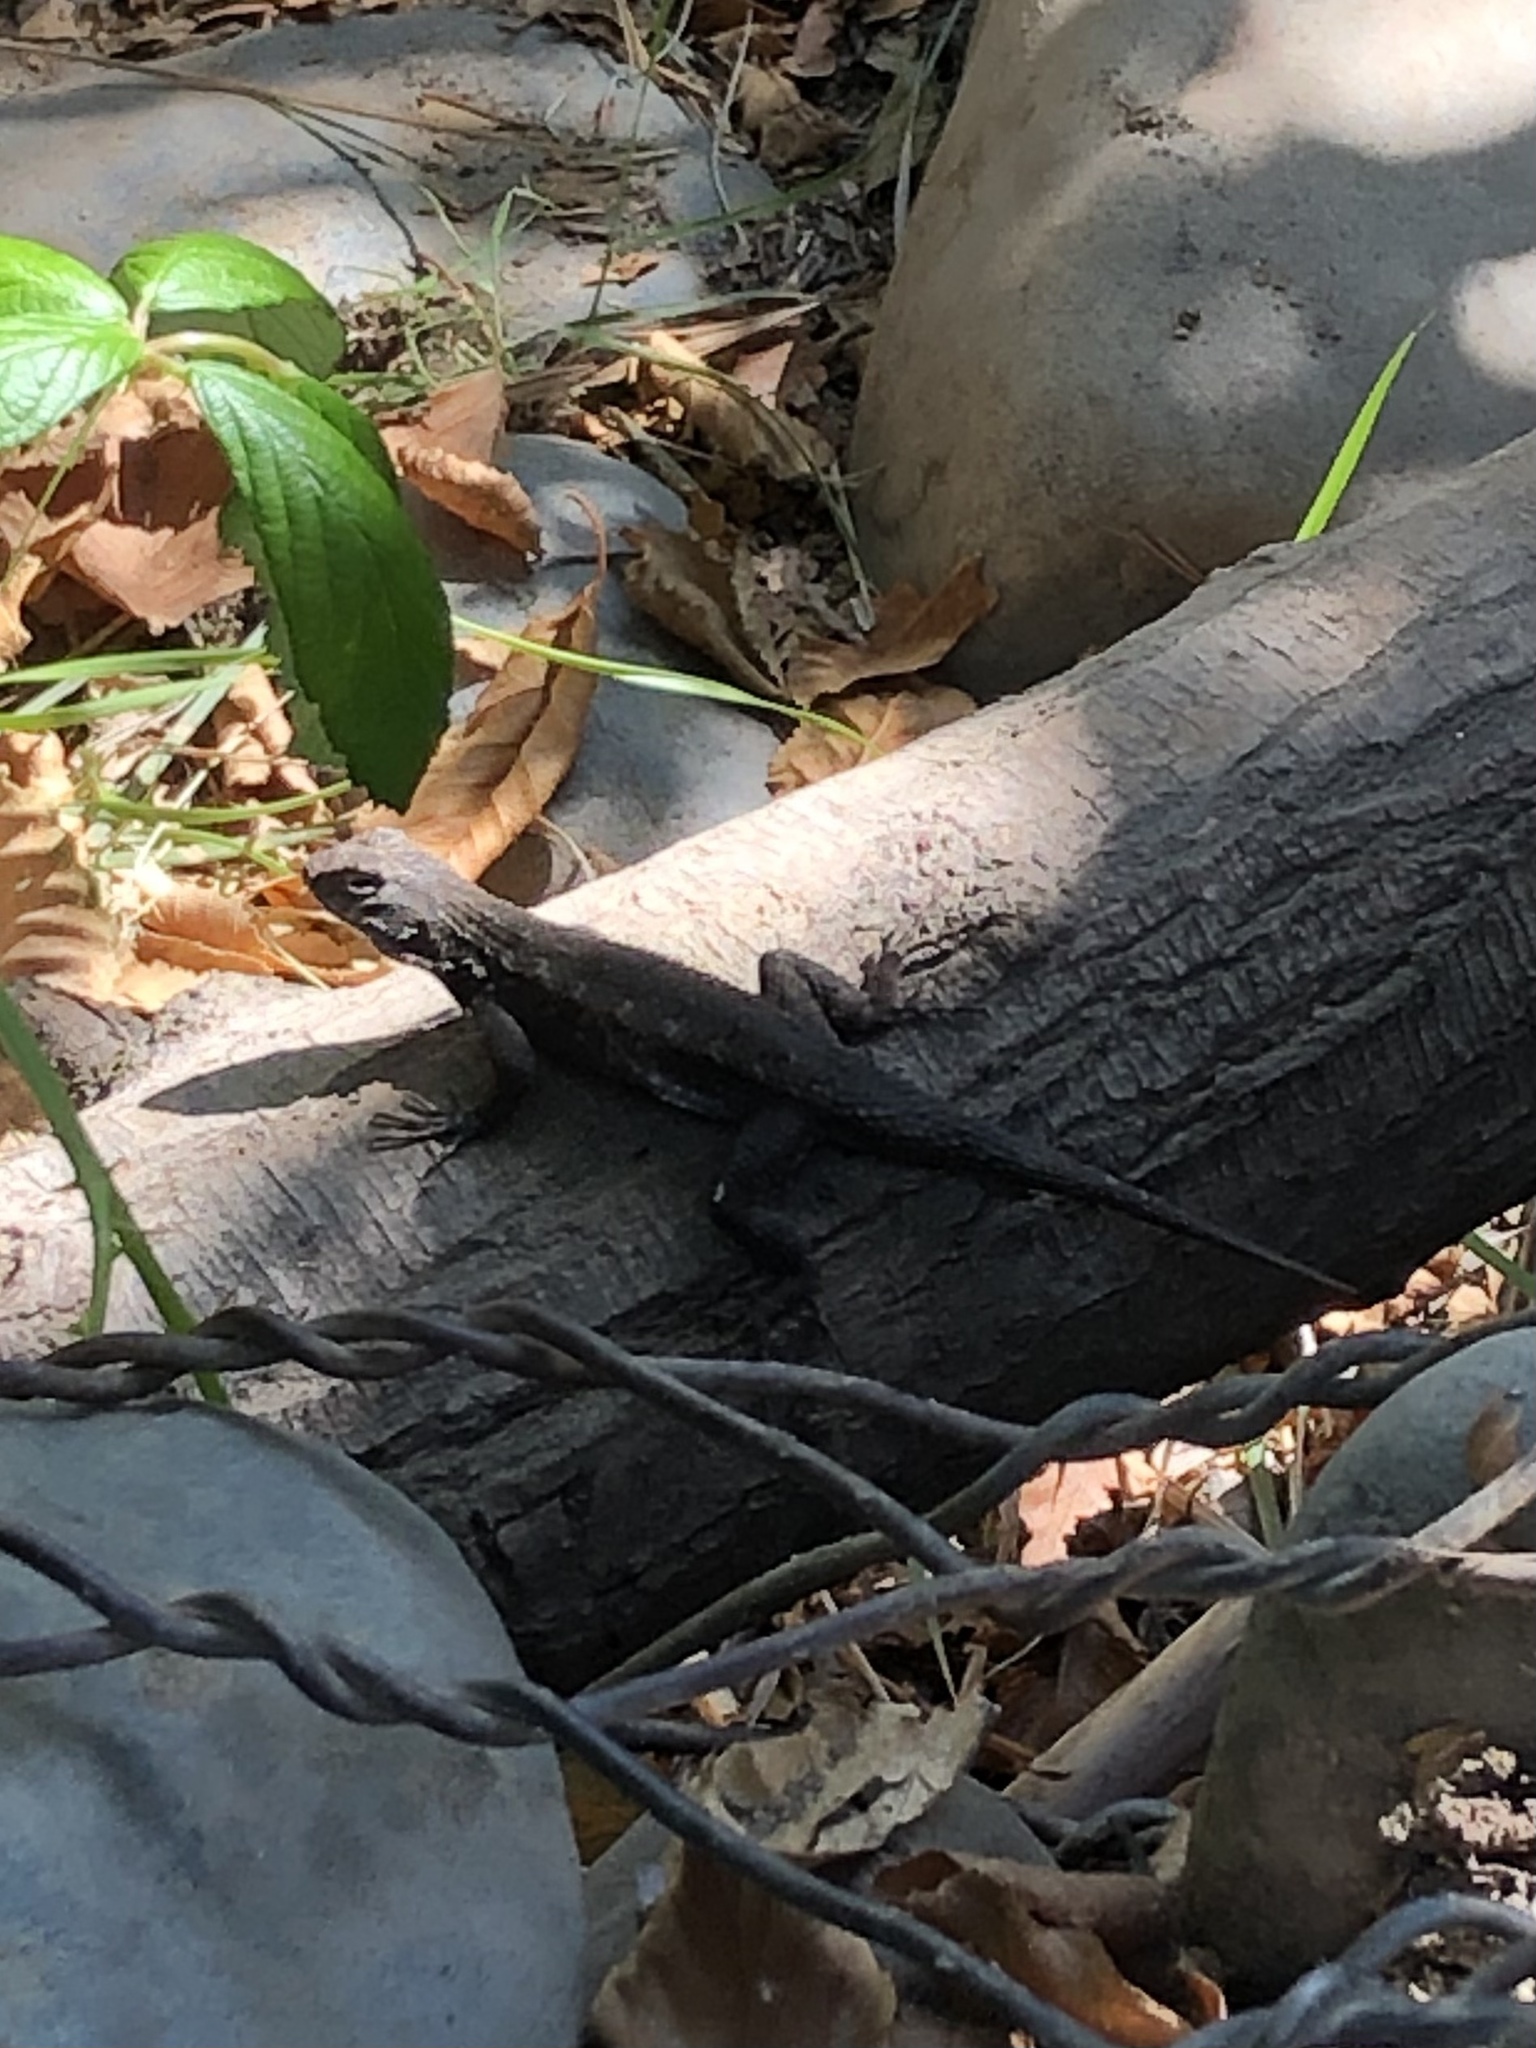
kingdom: Animalia
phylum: Chordata
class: Squamata
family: Phrynosomatidae
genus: Sceloporus
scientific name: Sceloporus occidentalis
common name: Western fence lizard
